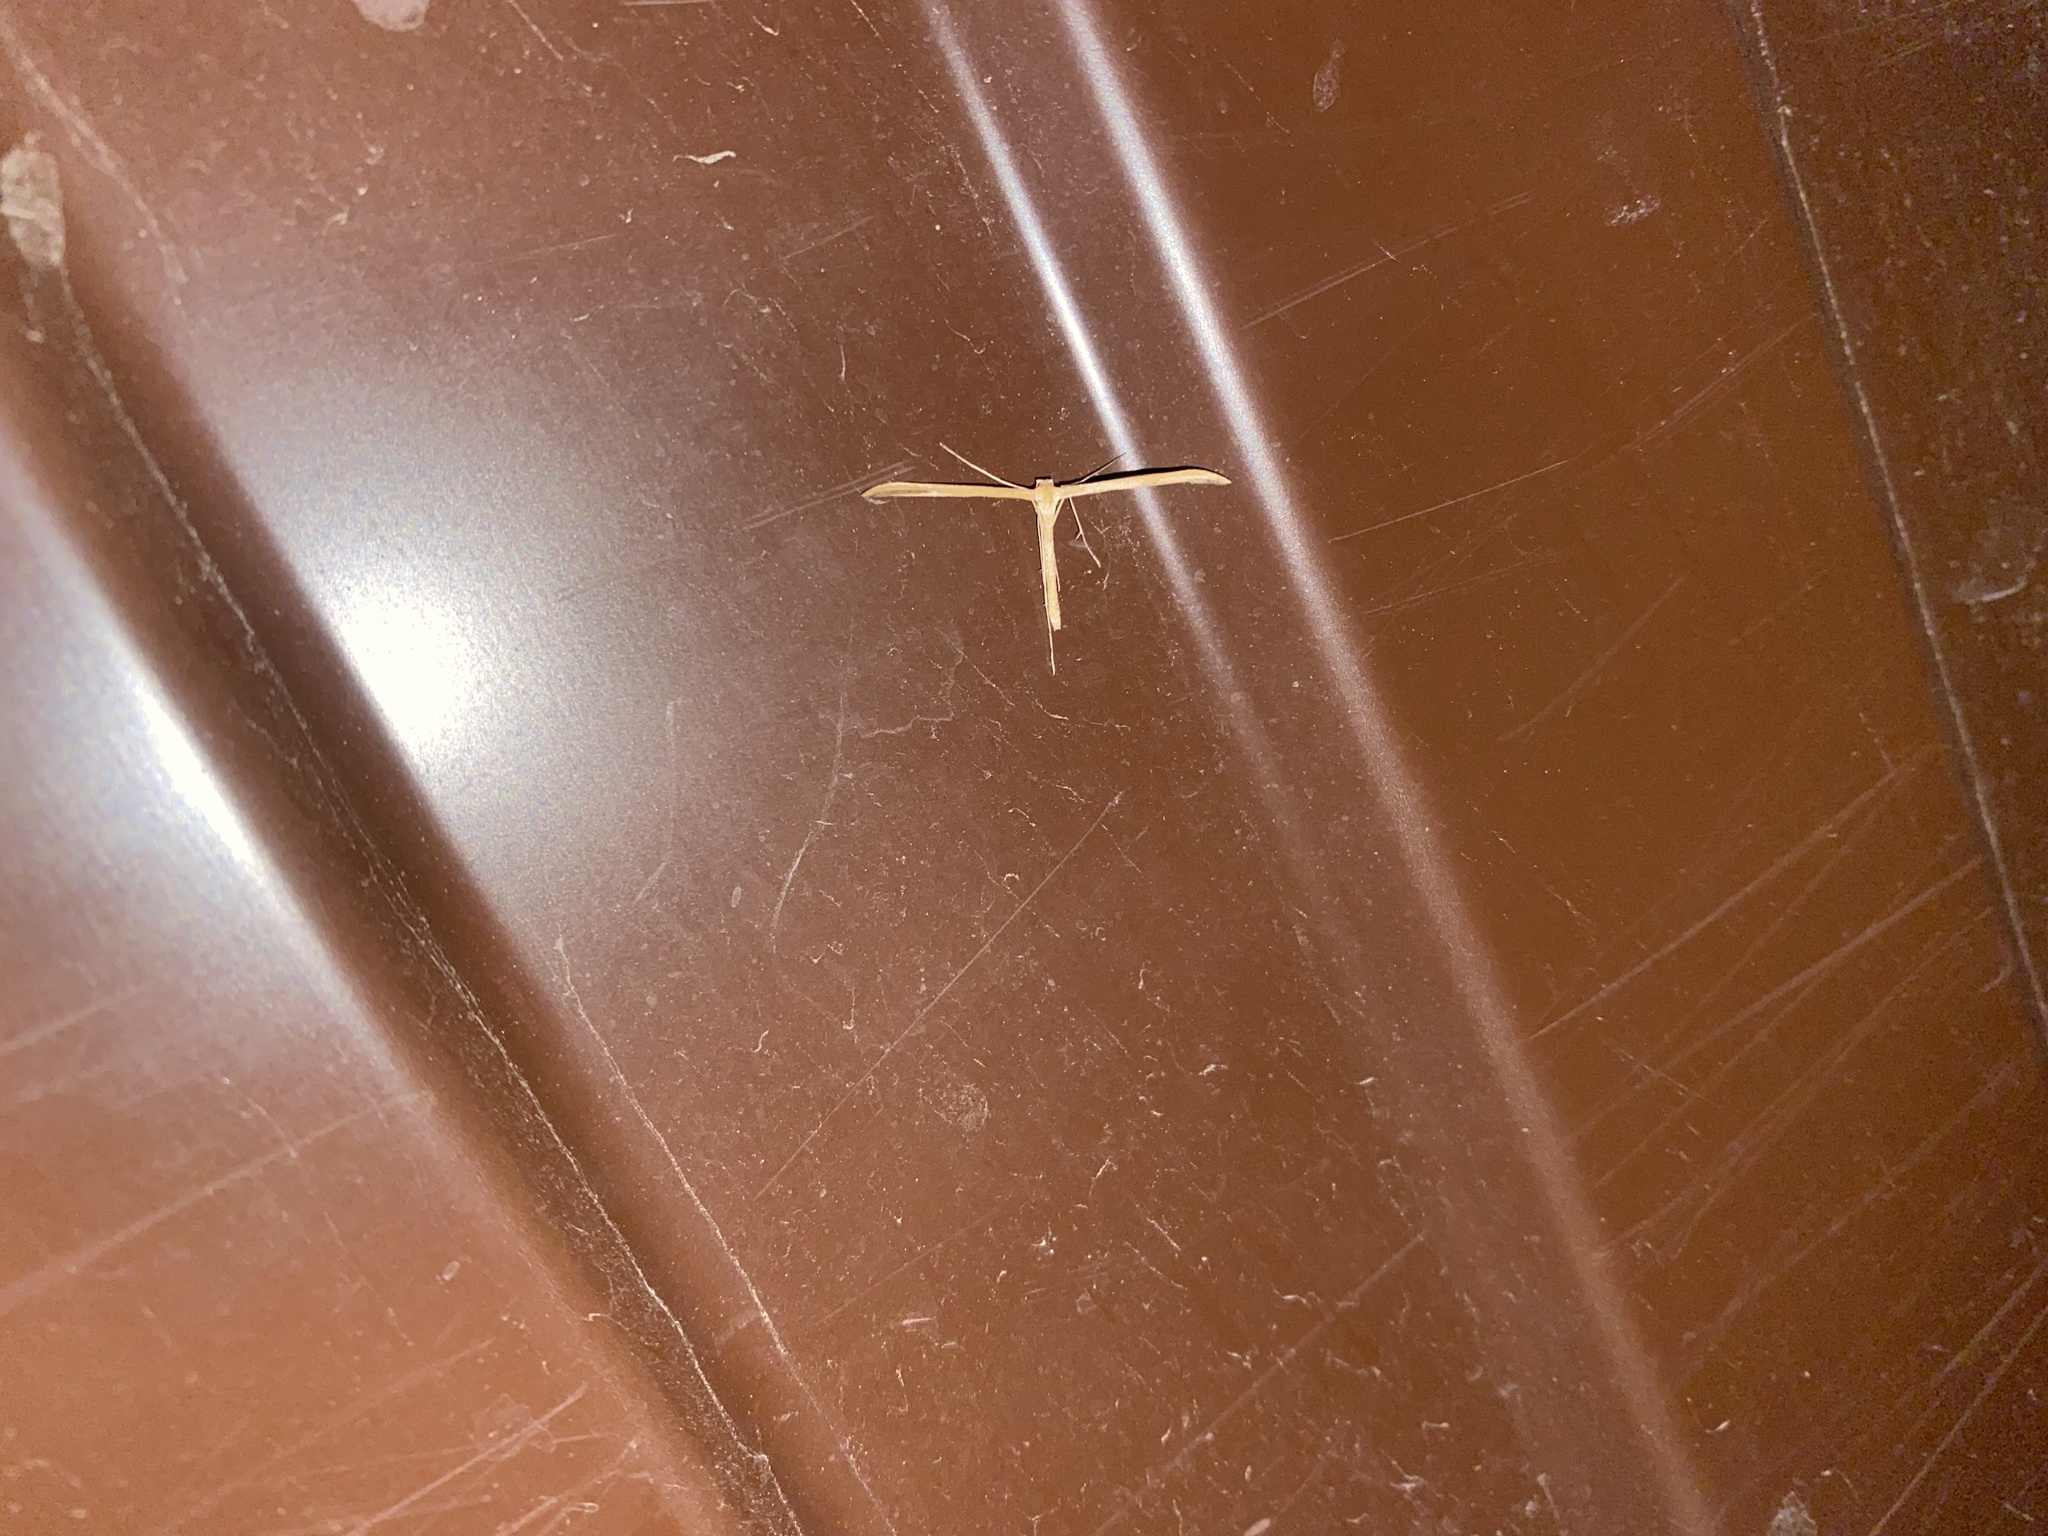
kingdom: Animalia
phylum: Arthropoda
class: Insecta
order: Lepidoptera
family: Pterophoridae
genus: Emmelina
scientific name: Emmelina monodactyla
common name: Common plume
